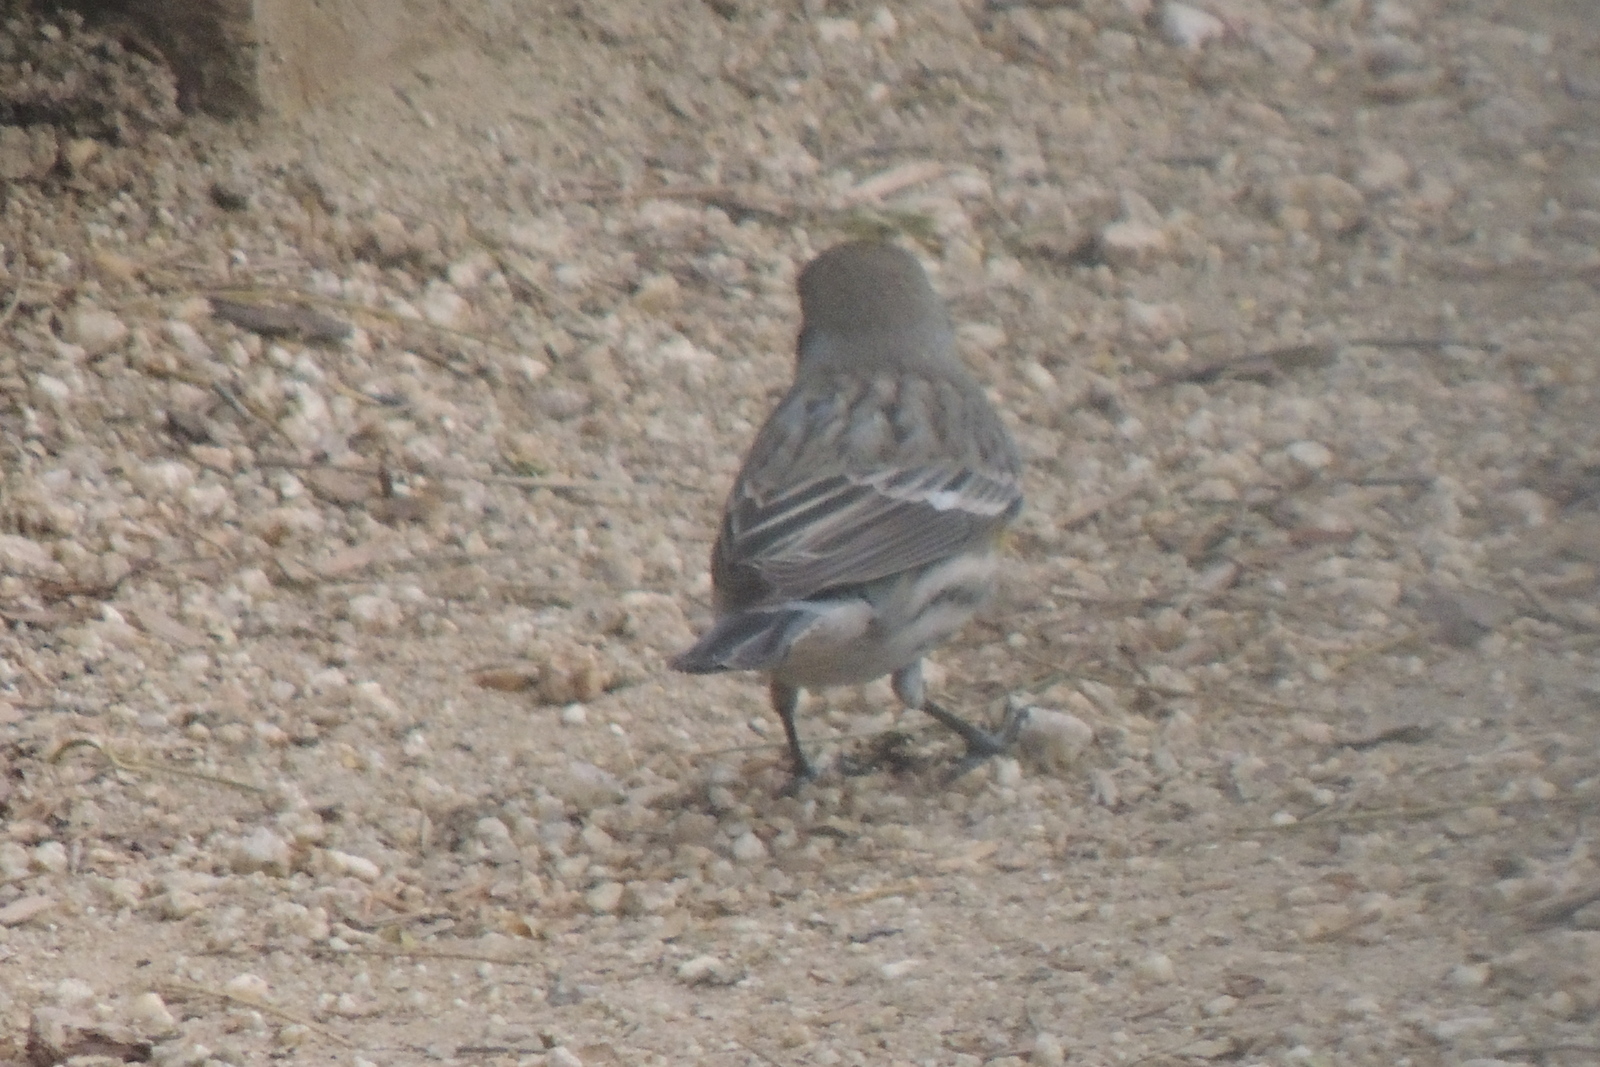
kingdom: Animalia
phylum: Chordata
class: Aves
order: Passeriformes
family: Parulidae
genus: Setophaga
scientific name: Setophaga coronata
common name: Myrtle warbler
